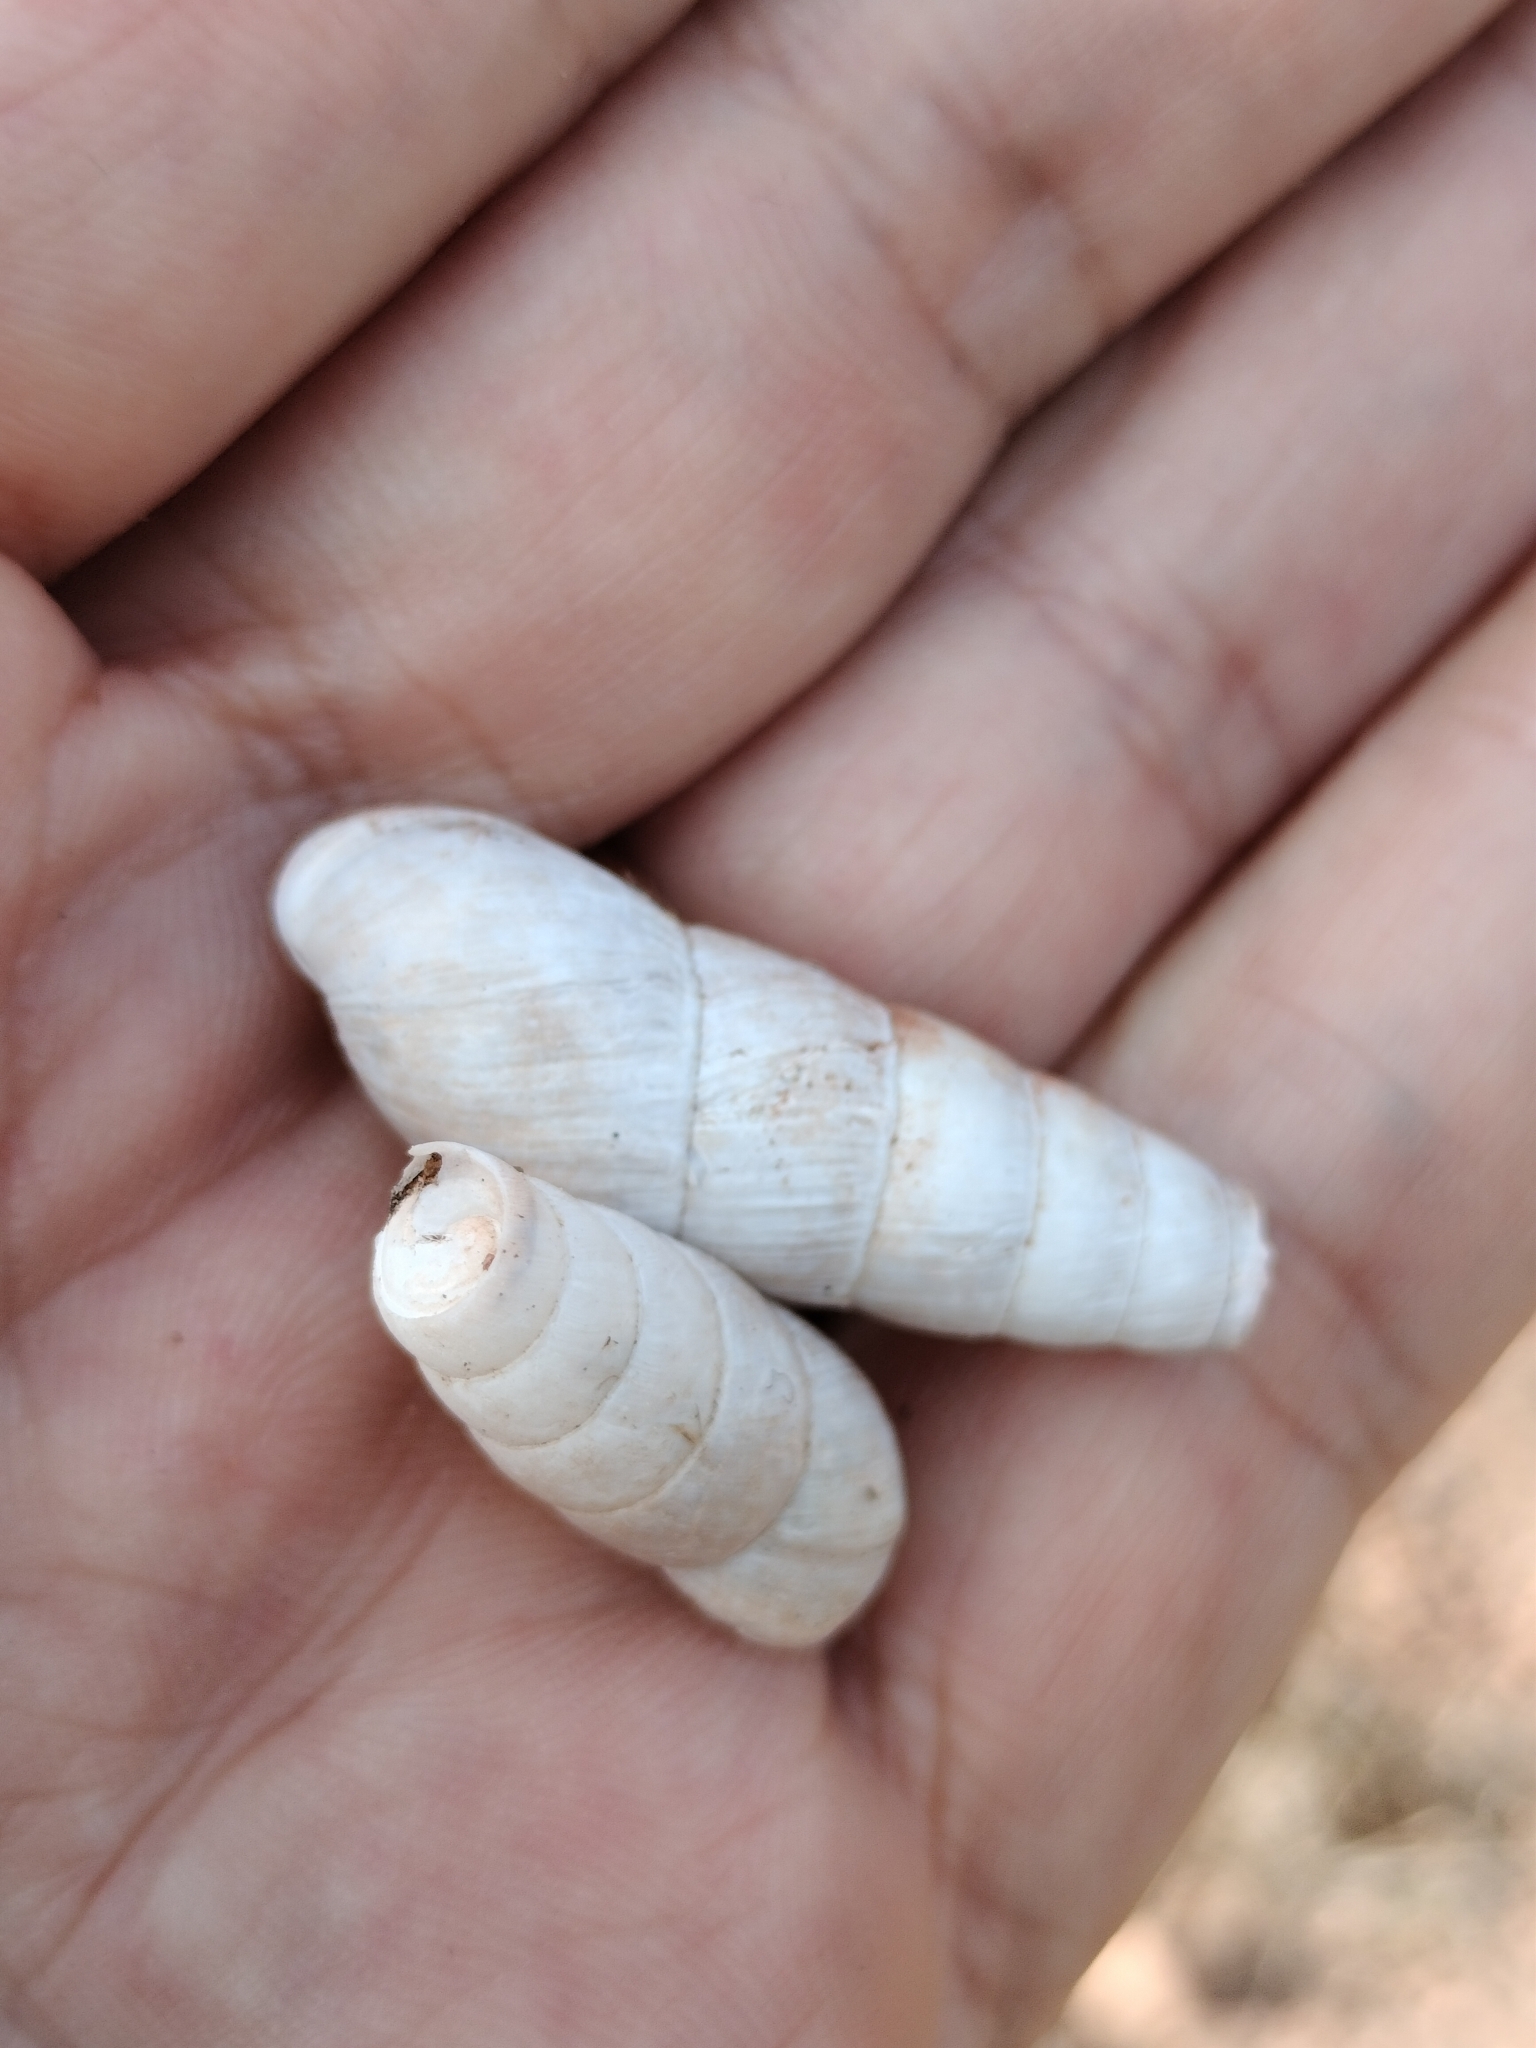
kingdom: Animalia
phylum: Mollusca
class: Gastropoda
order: Stylommatophora
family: Achatinidae
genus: Rumina
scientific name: Rumina decollata
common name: Decollate snail
